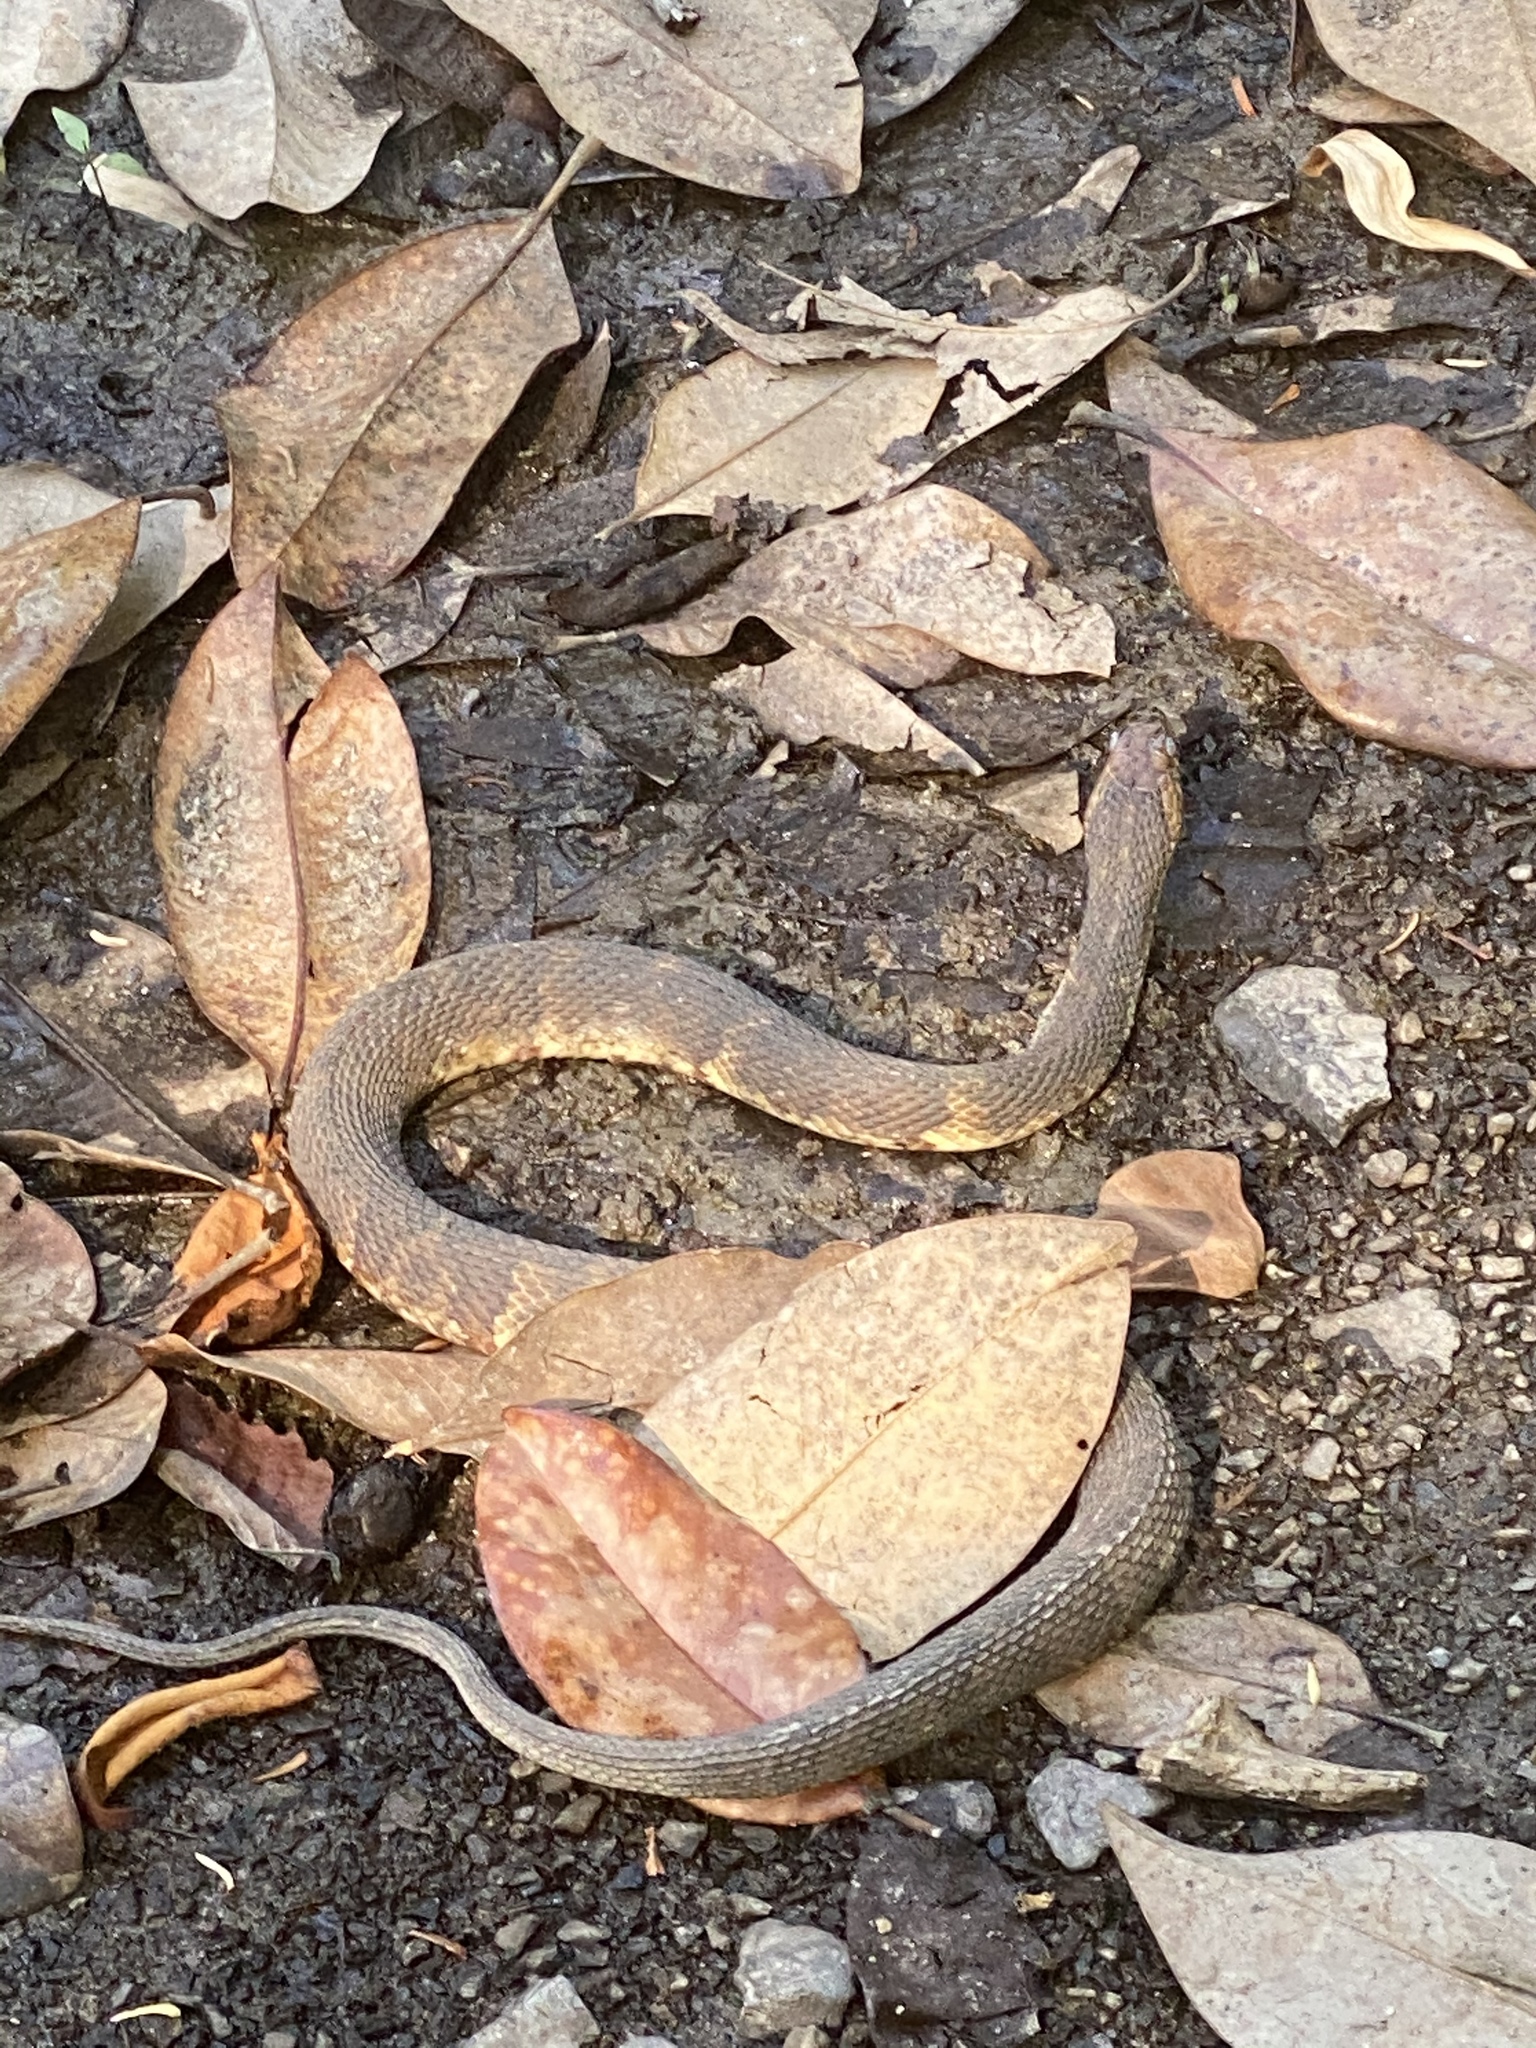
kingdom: Animalia
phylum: Chordata
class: Squamata
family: Colubridae
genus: Nerodia
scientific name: Nerodia fasciata
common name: Southern water snake
